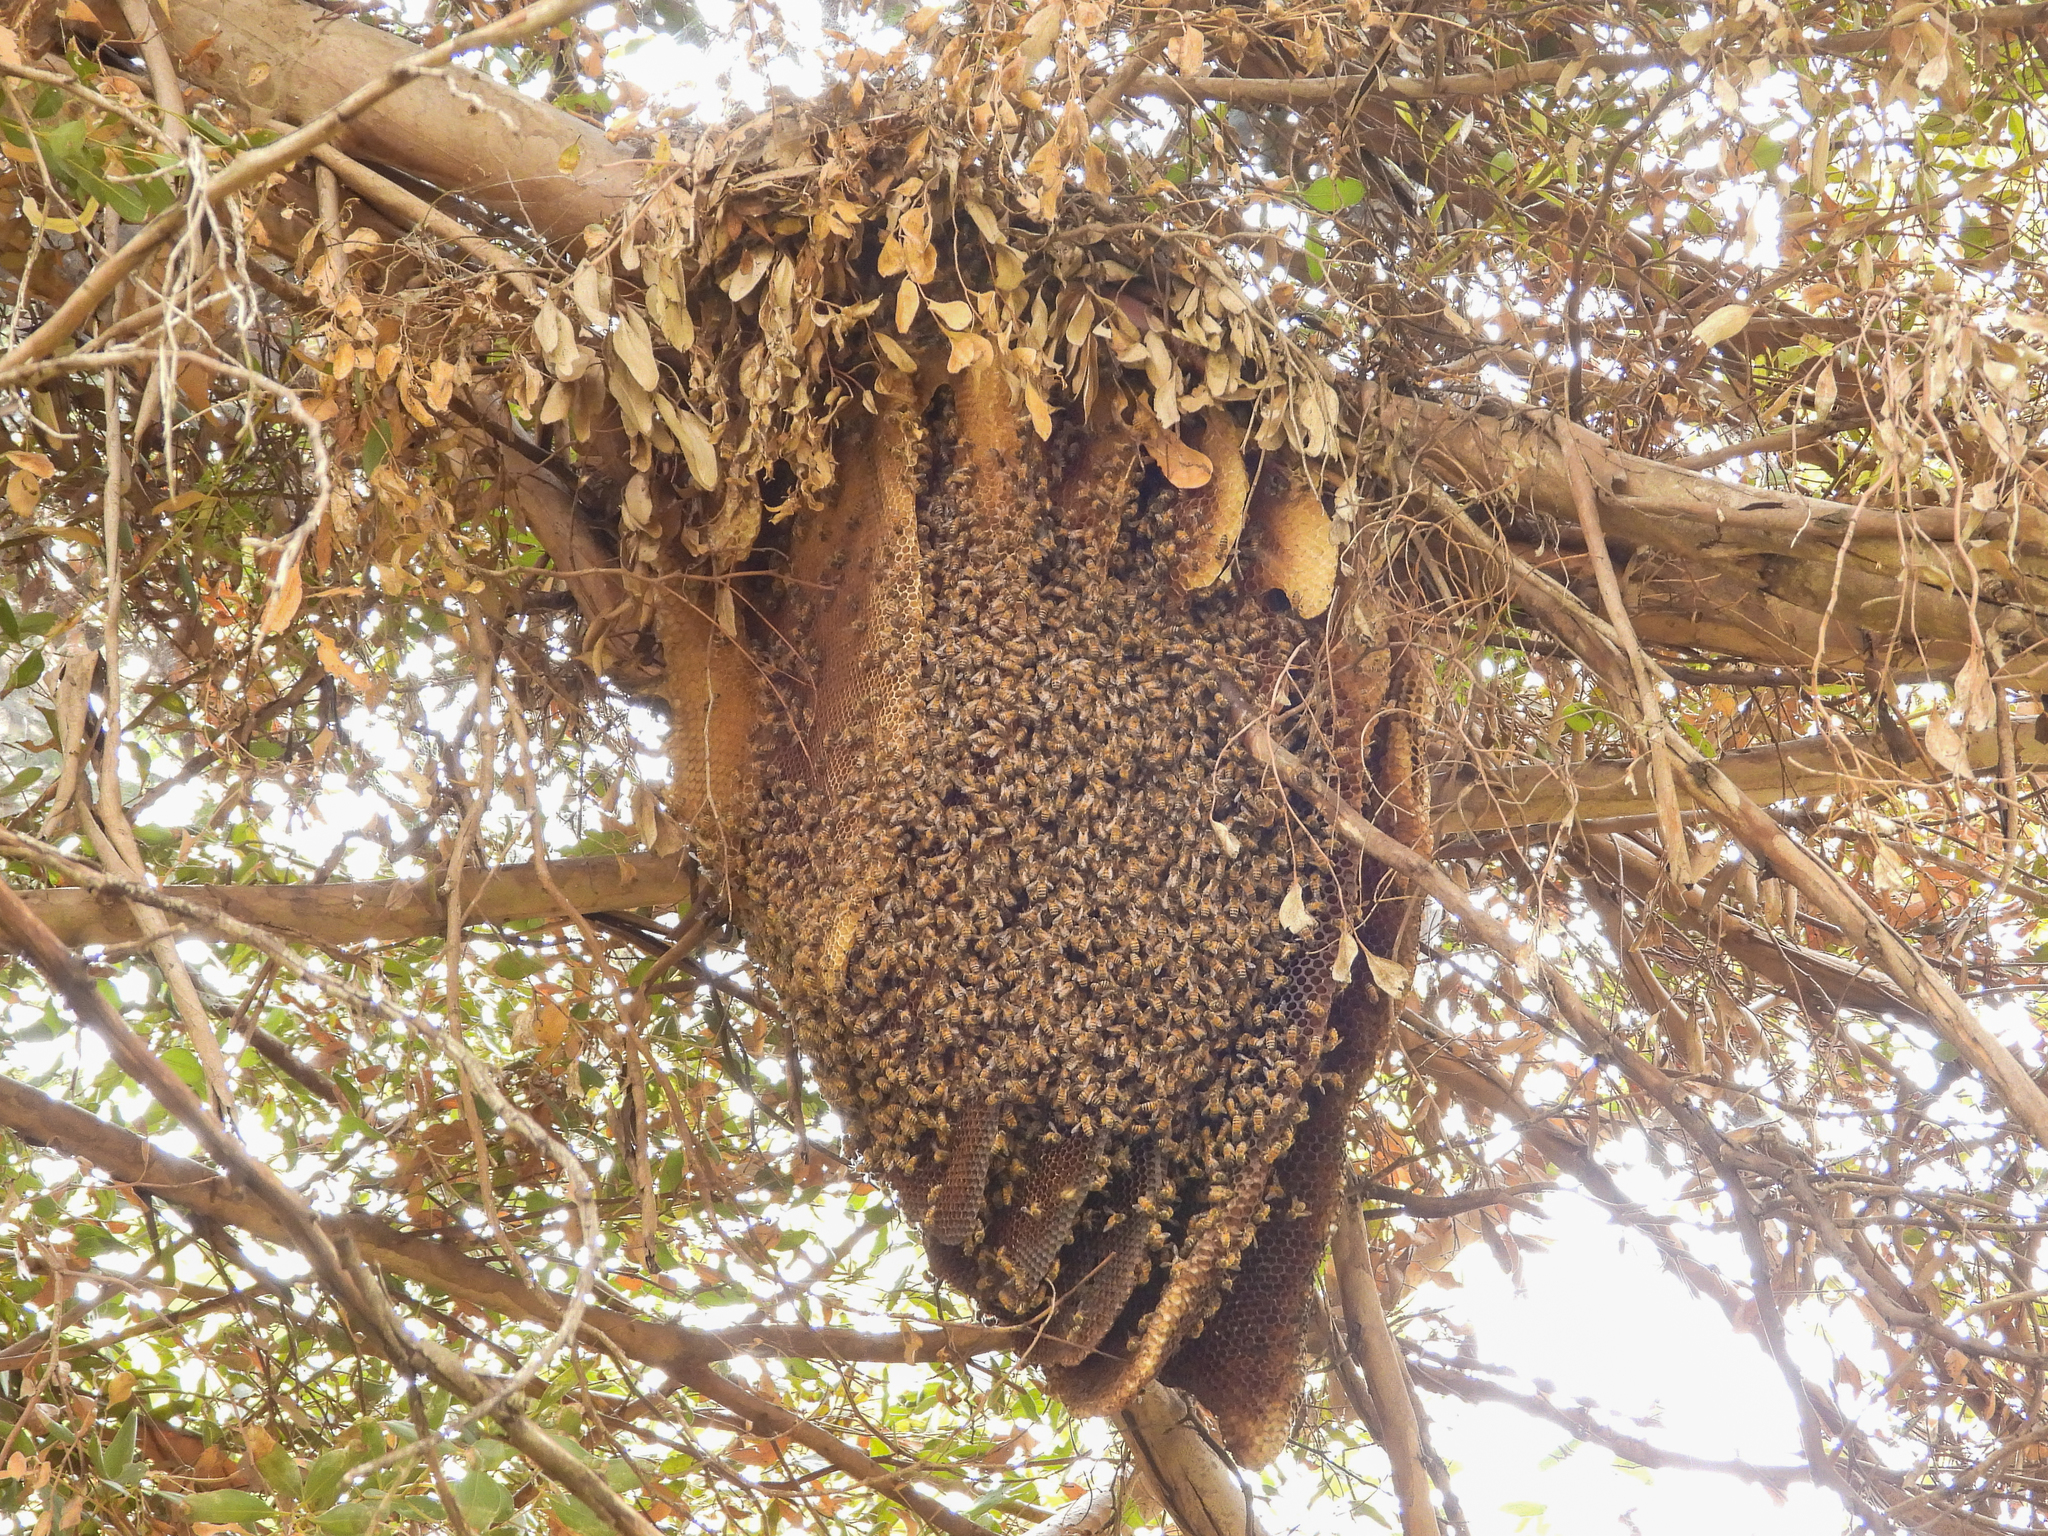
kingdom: Animalia
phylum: Arthropoda
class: Insecta
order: Hymenoptera
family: Apidae
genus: Apis
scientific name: Apis mellifera
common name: Honey bee
